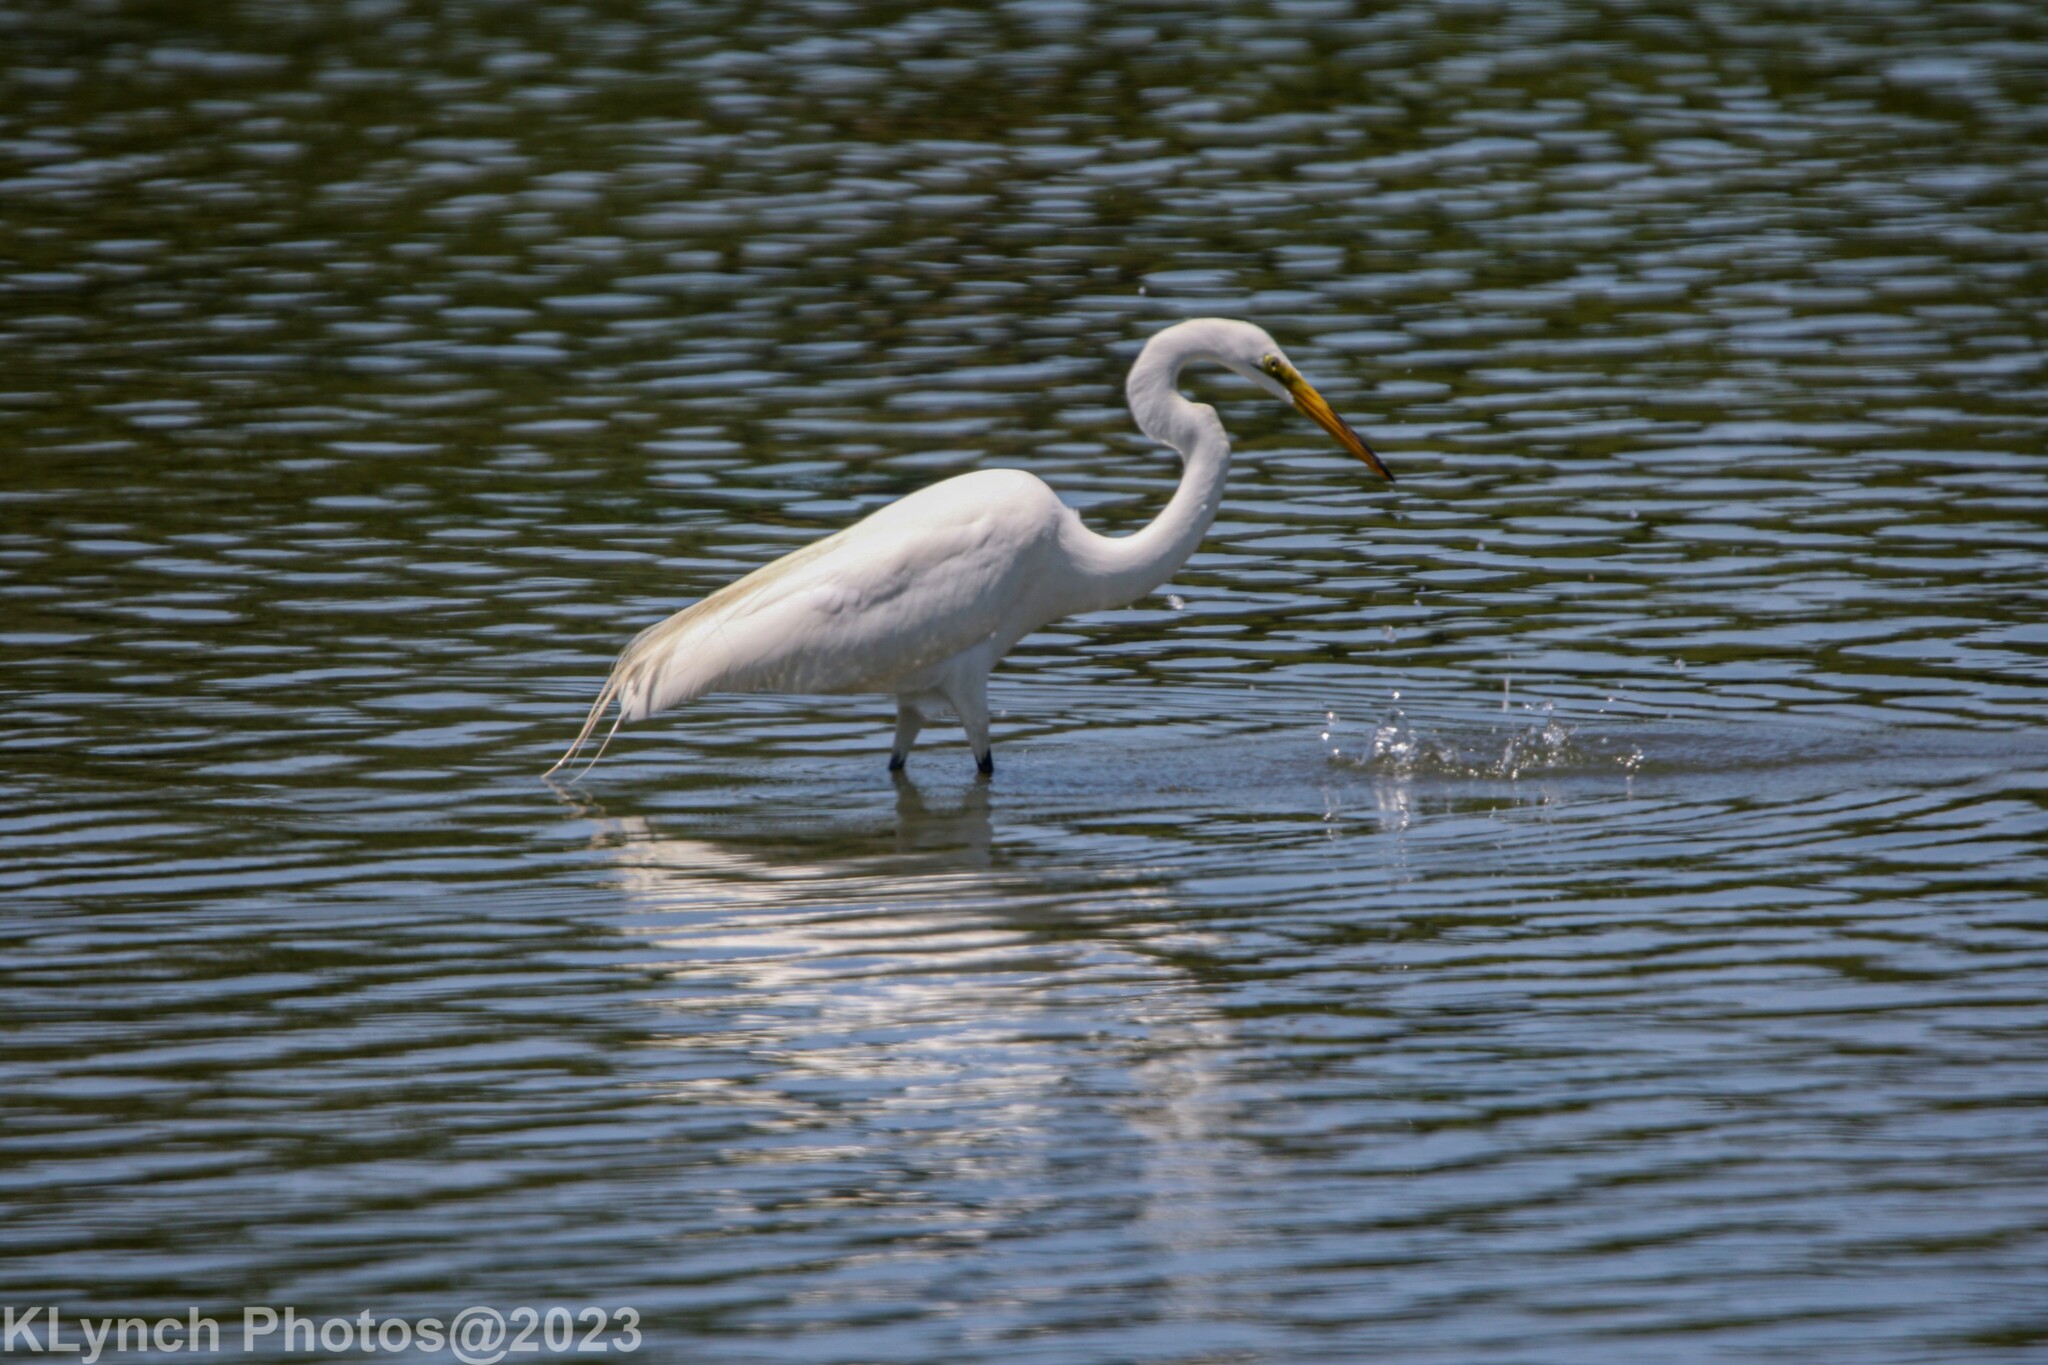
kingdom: Animalia
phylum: Chordata
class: Aves
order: Pelecaniformes
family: Ardeidae
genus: Ardea
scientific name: Ardea alba
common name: Great egret
